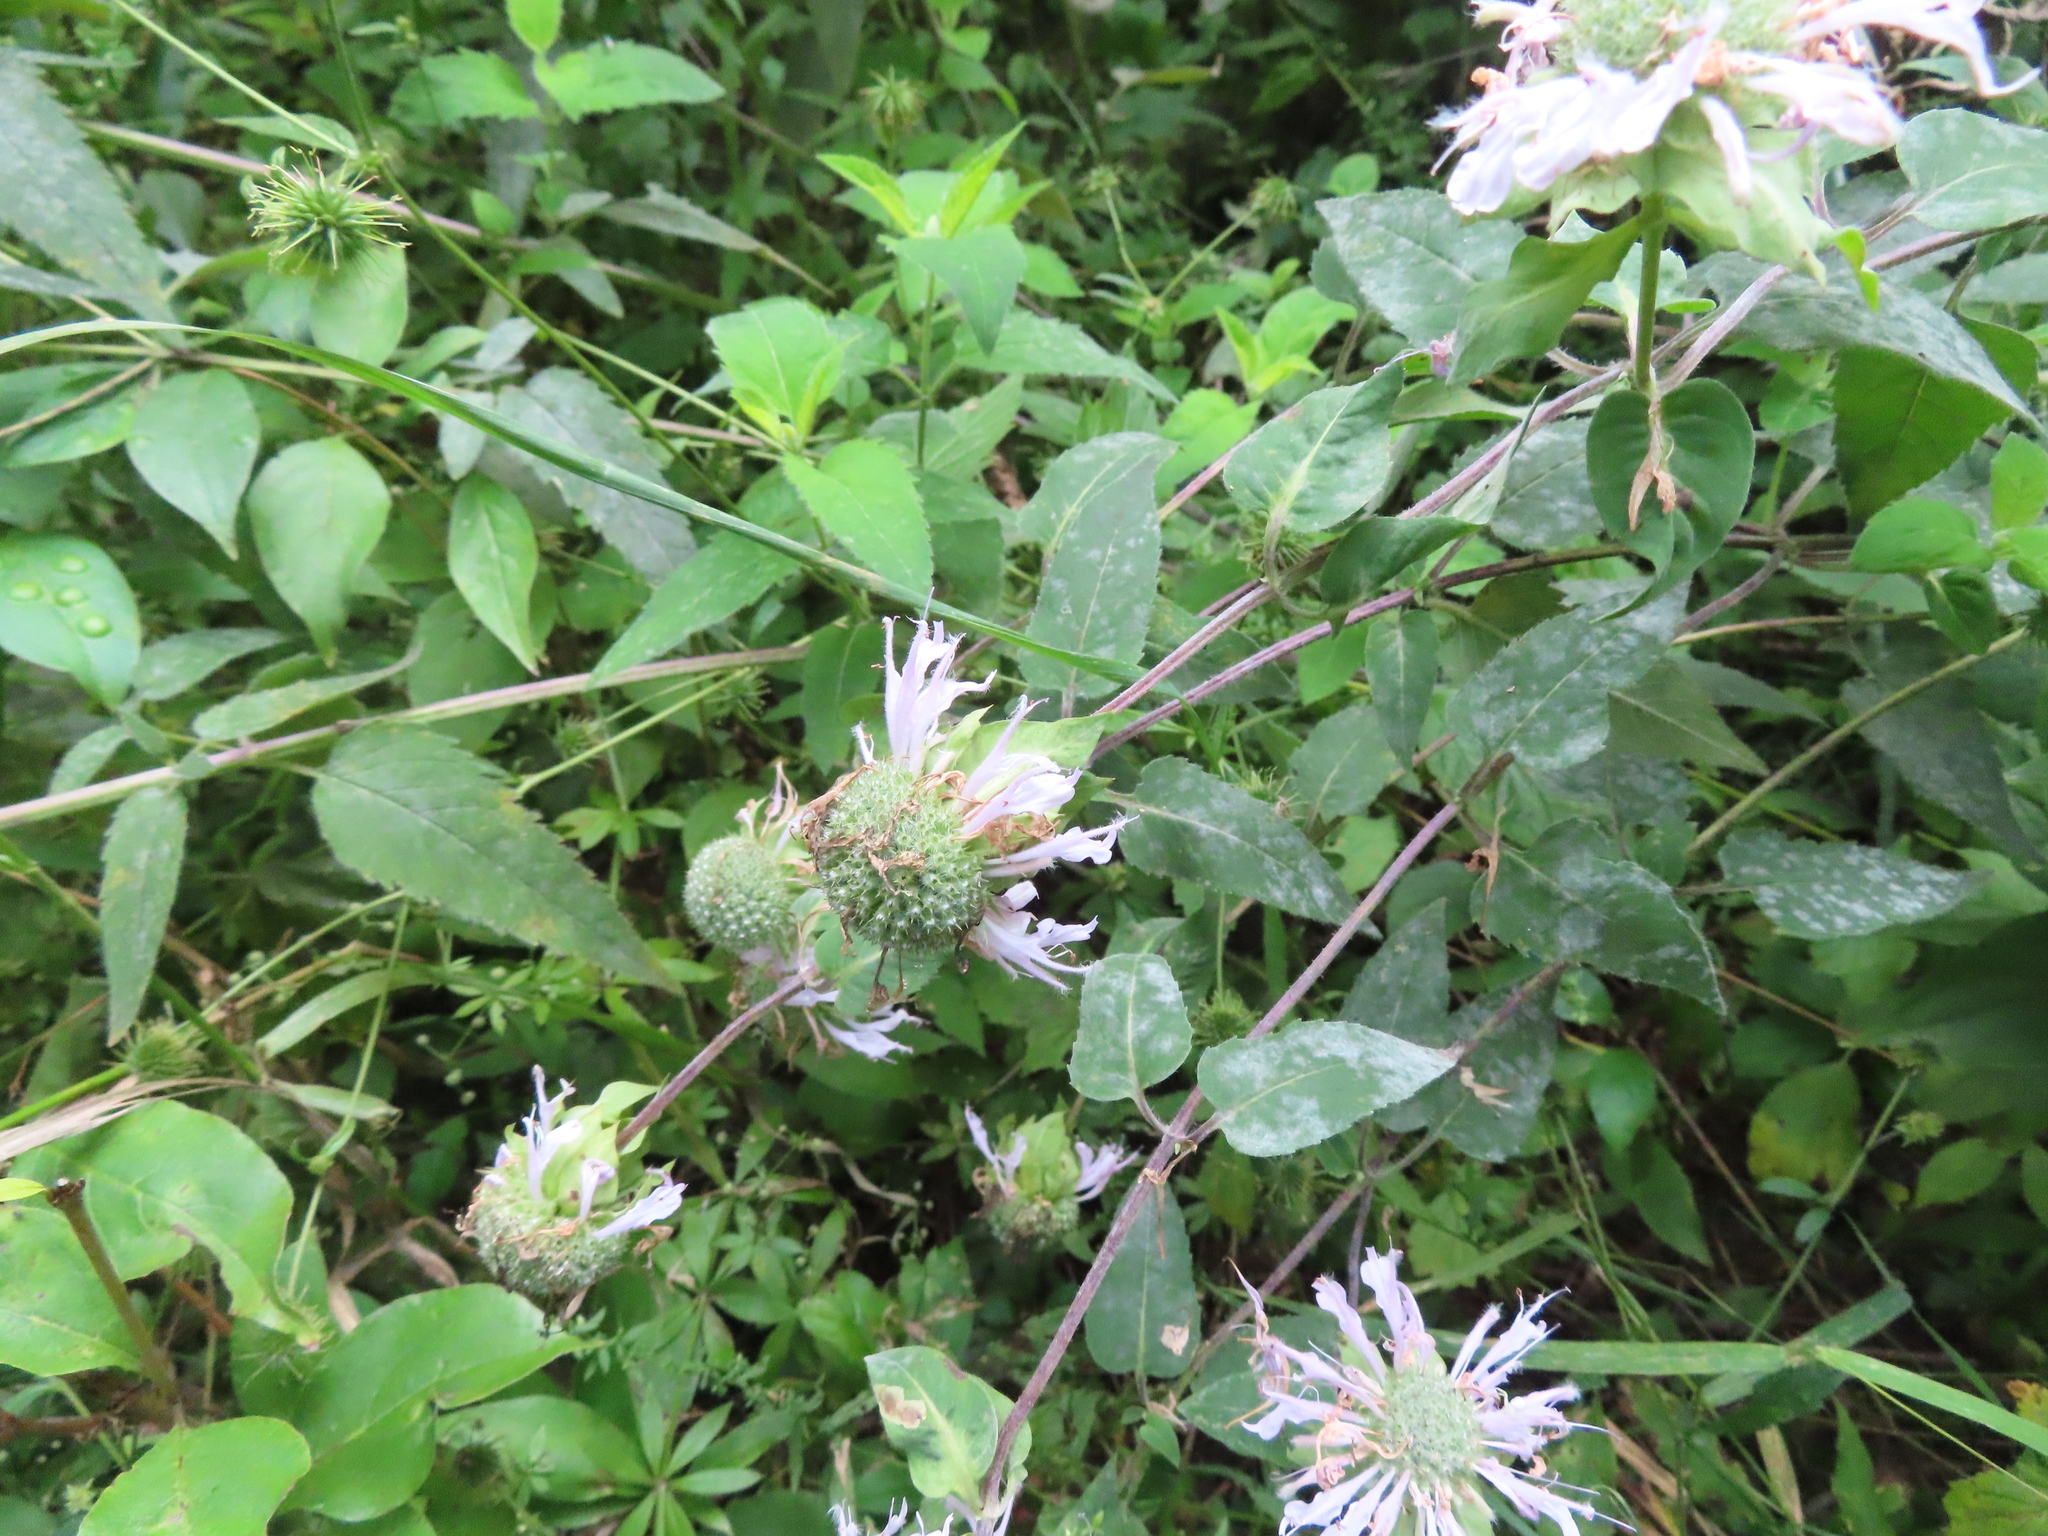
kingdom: Fungi
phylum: Ascomycota
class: Leotiomycetes
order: Helotiales
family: Erysiphaceae
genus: Golovinomyces
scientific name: Golovinomyces monardae
